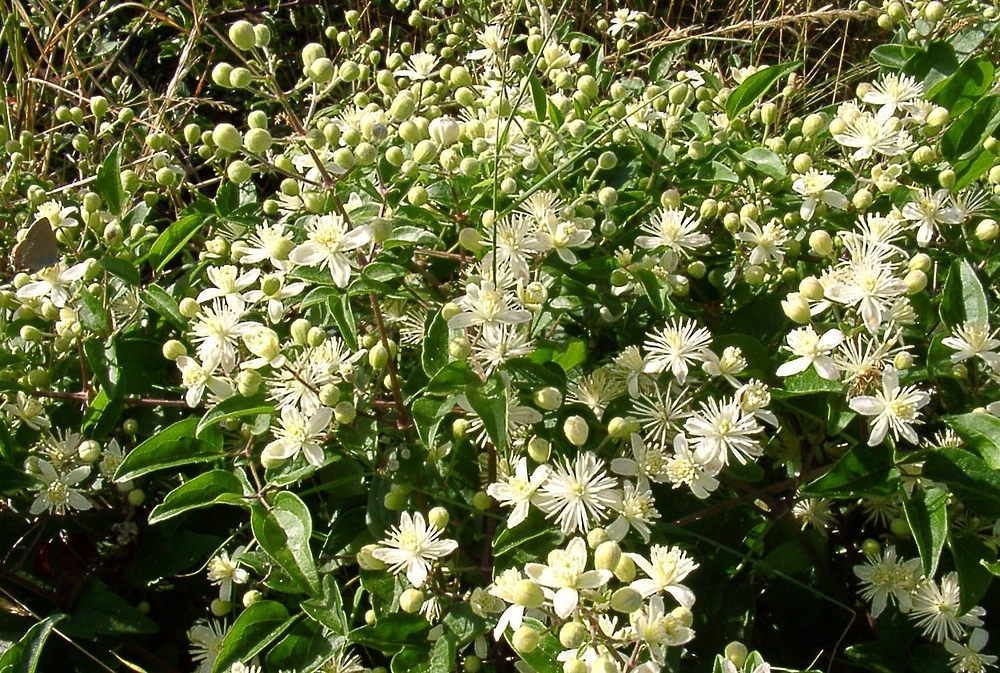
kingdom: Plantae
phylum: Tracheophyta
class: Magnoliopsida
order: Ranunculales
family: Ranunculaceae
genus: Clematis
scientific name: Clematis vitalba
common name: Evergreen clematis
